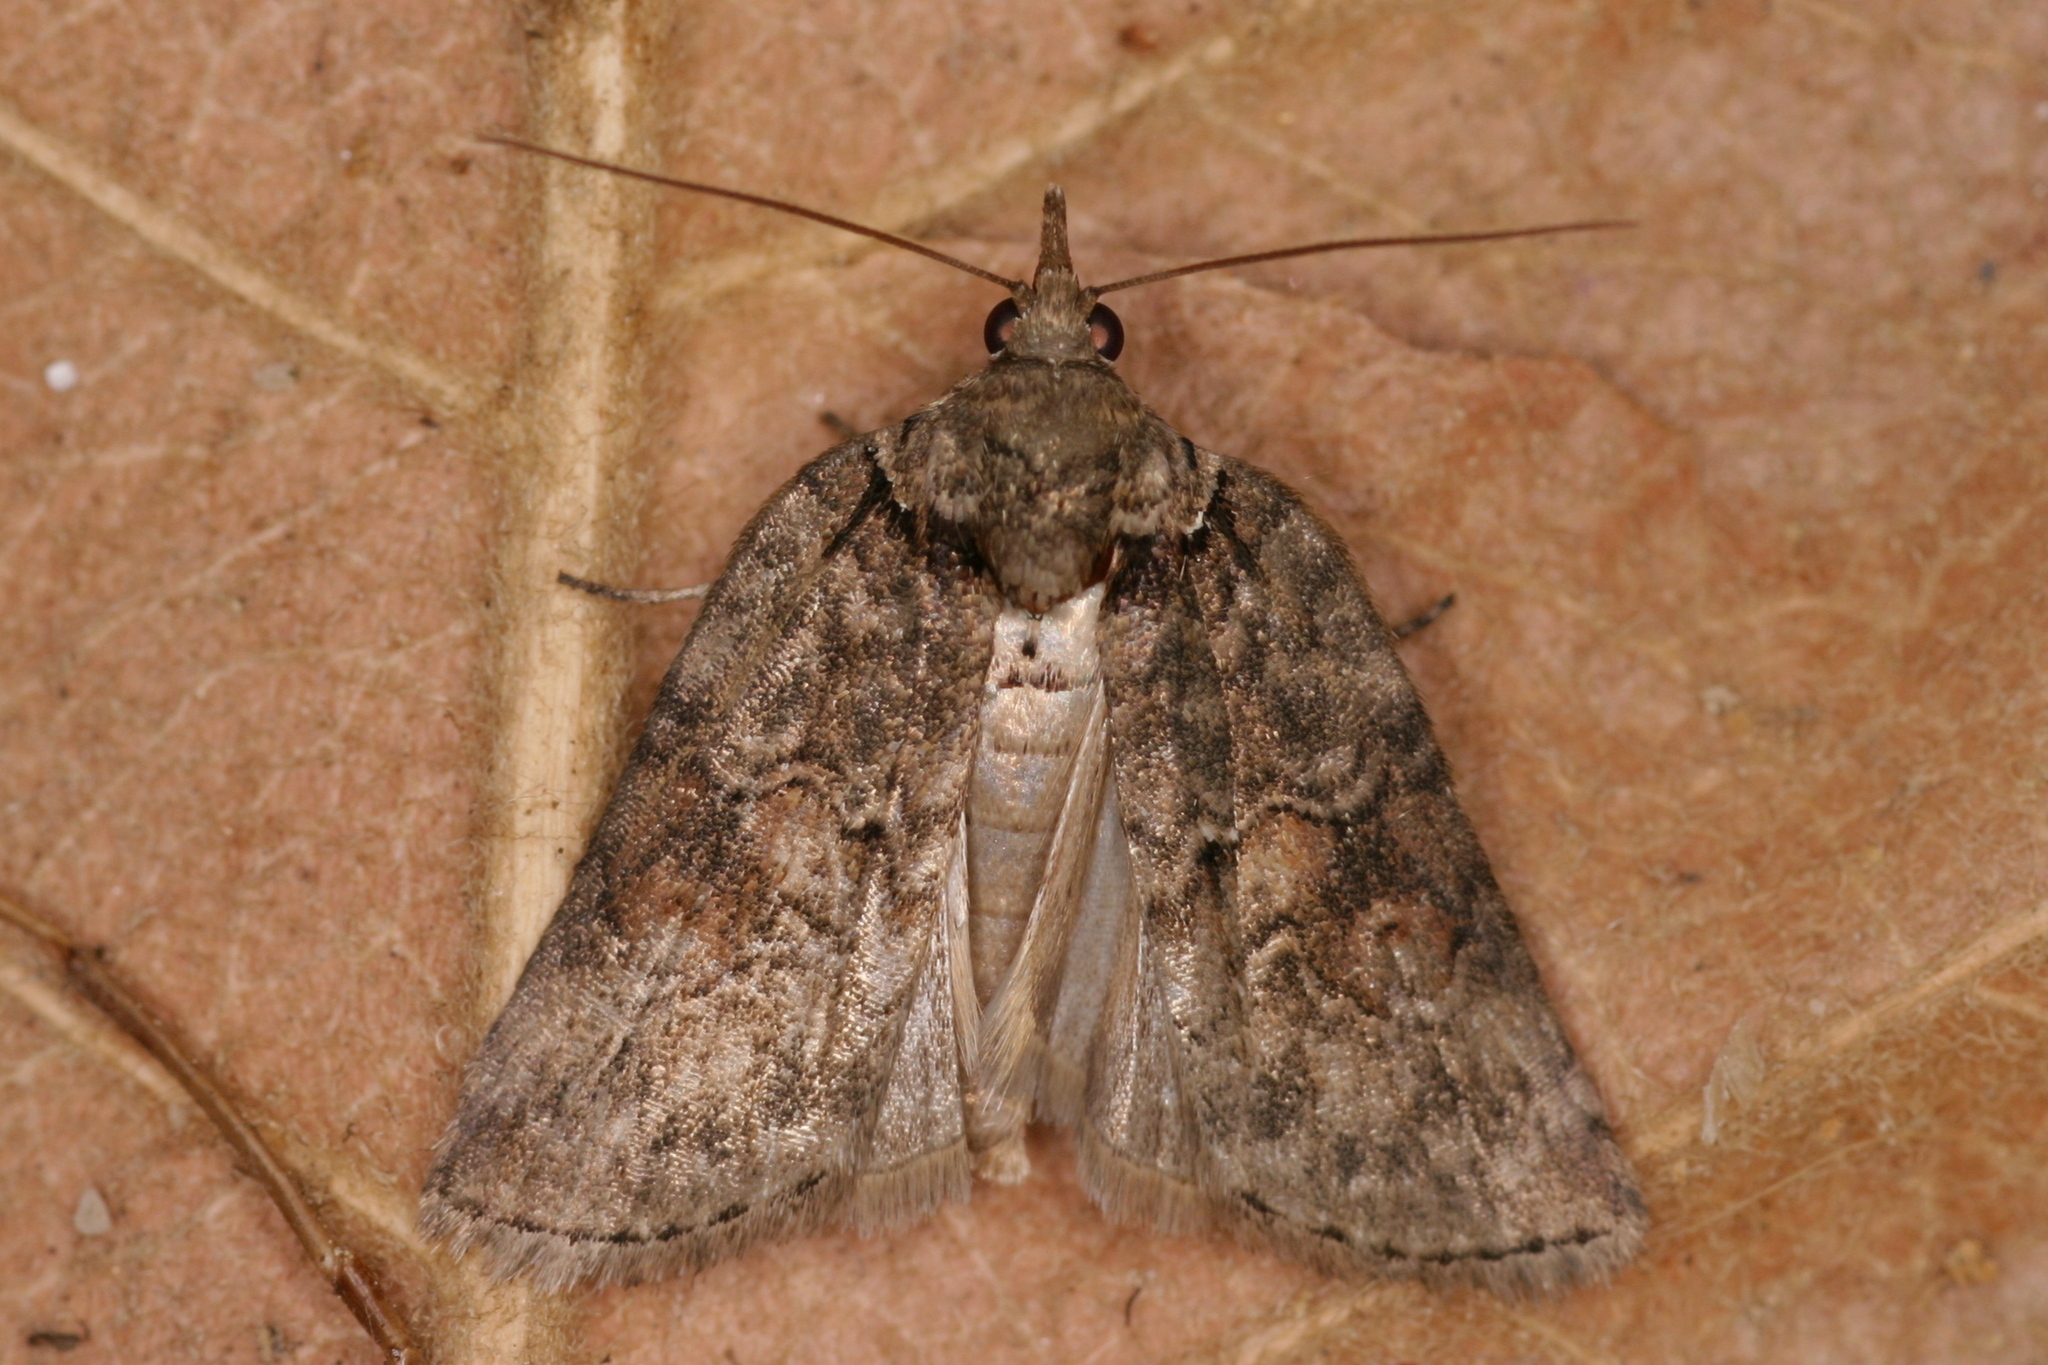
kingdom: Animalia
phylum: Arthropoda
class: Insecta
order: Lepidoptera
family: Nolidae
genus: Nycteola
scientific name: Nycteola revayana
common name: Oak nycteoline
